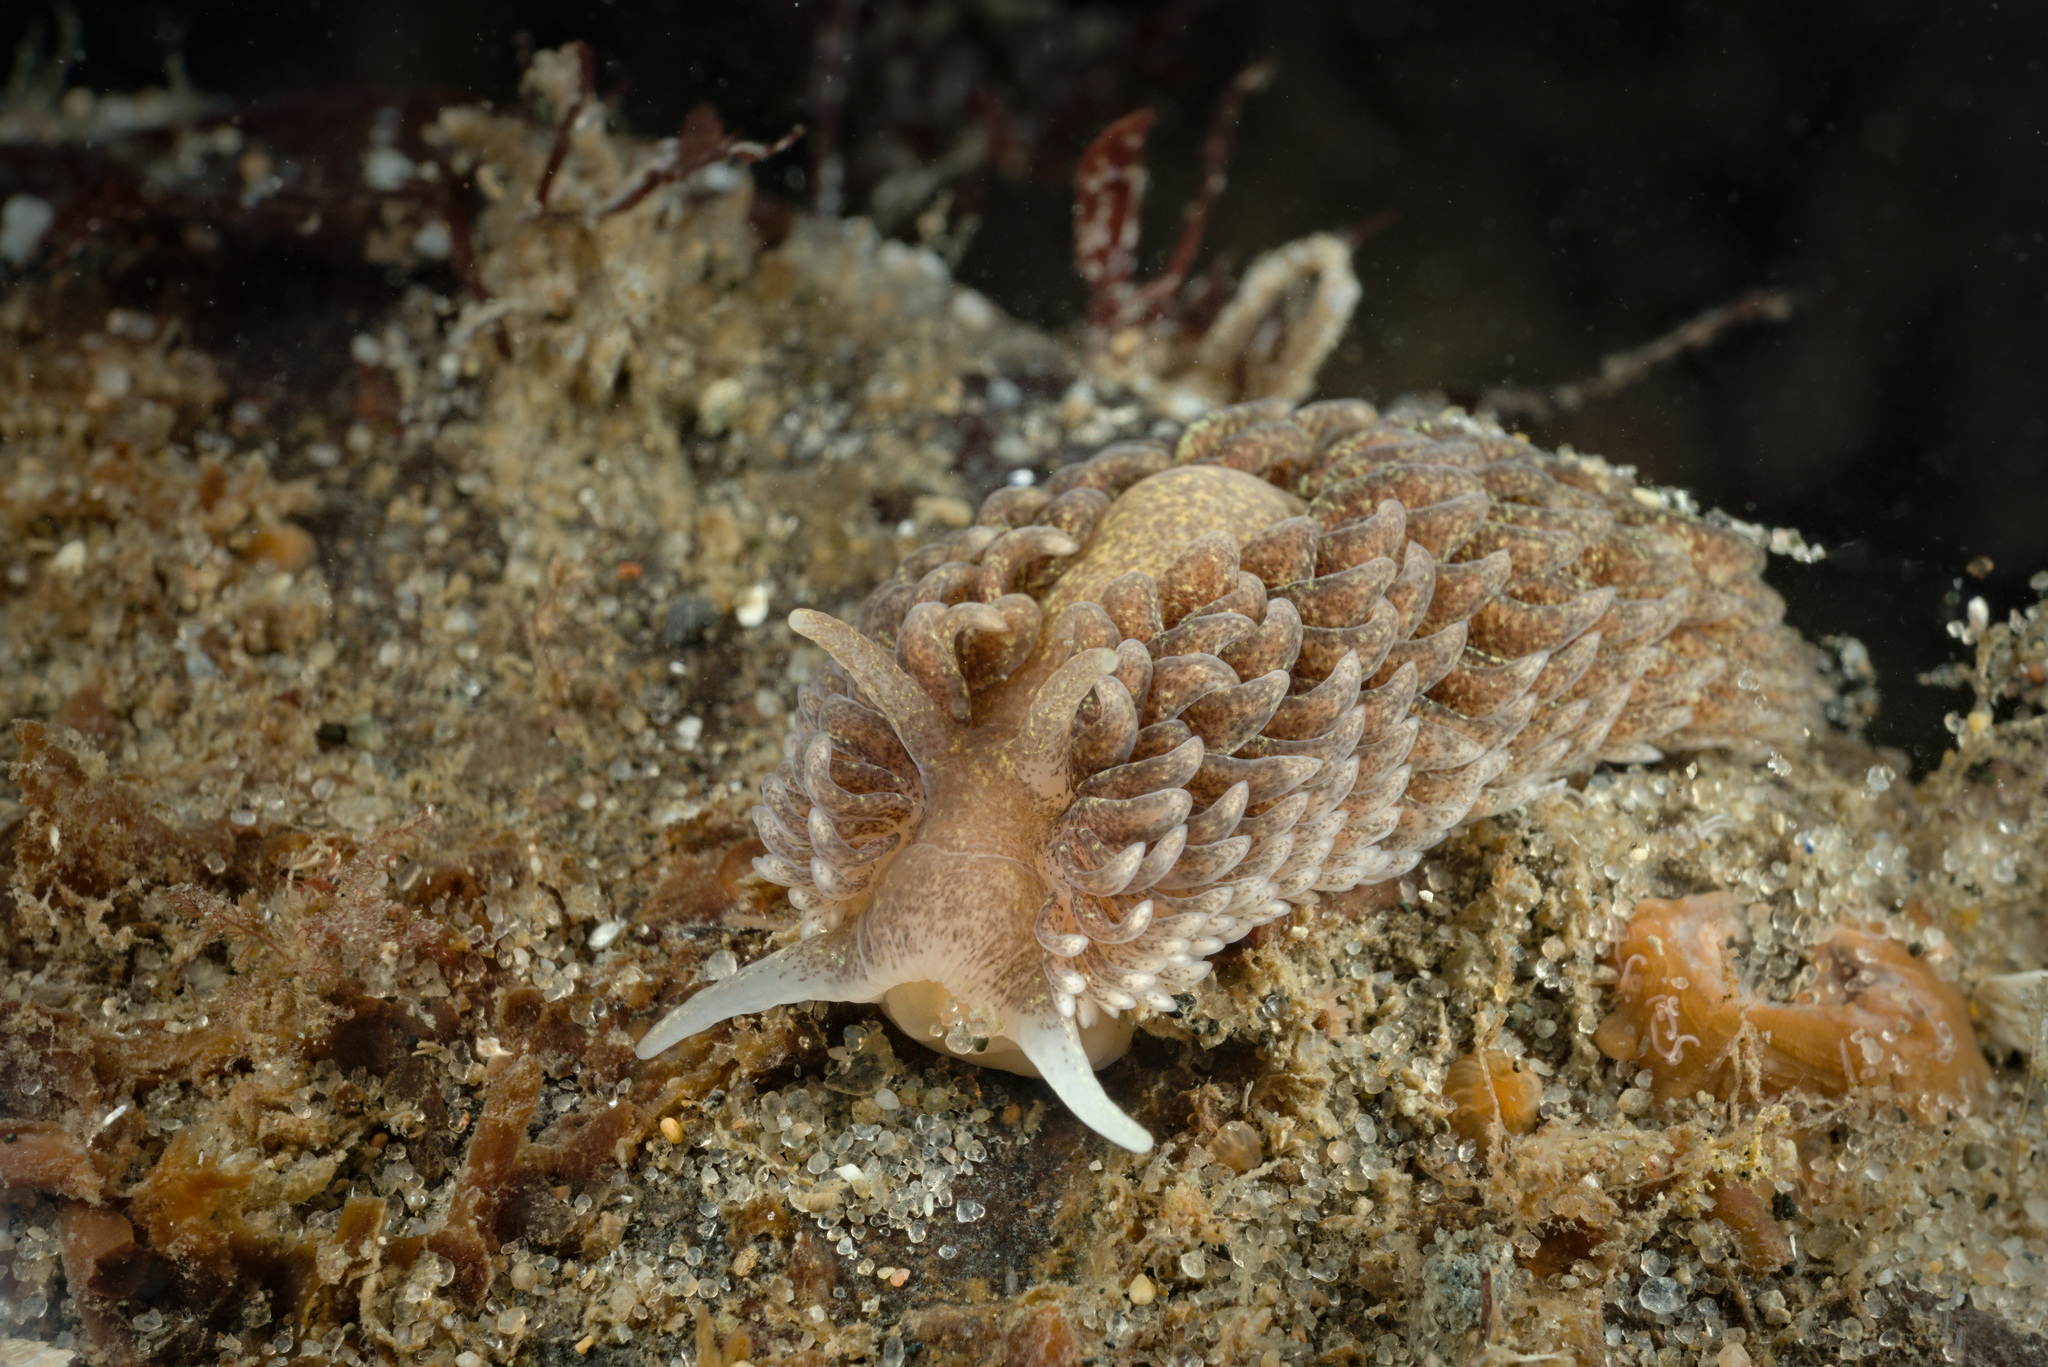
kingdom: Animalia
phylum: Mollusca
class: Gastropoda
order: Nudibranchia
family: Aeolidiidae
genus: Aeolidia
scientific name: Aeolidia papillosa
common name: Common grey sea slug
